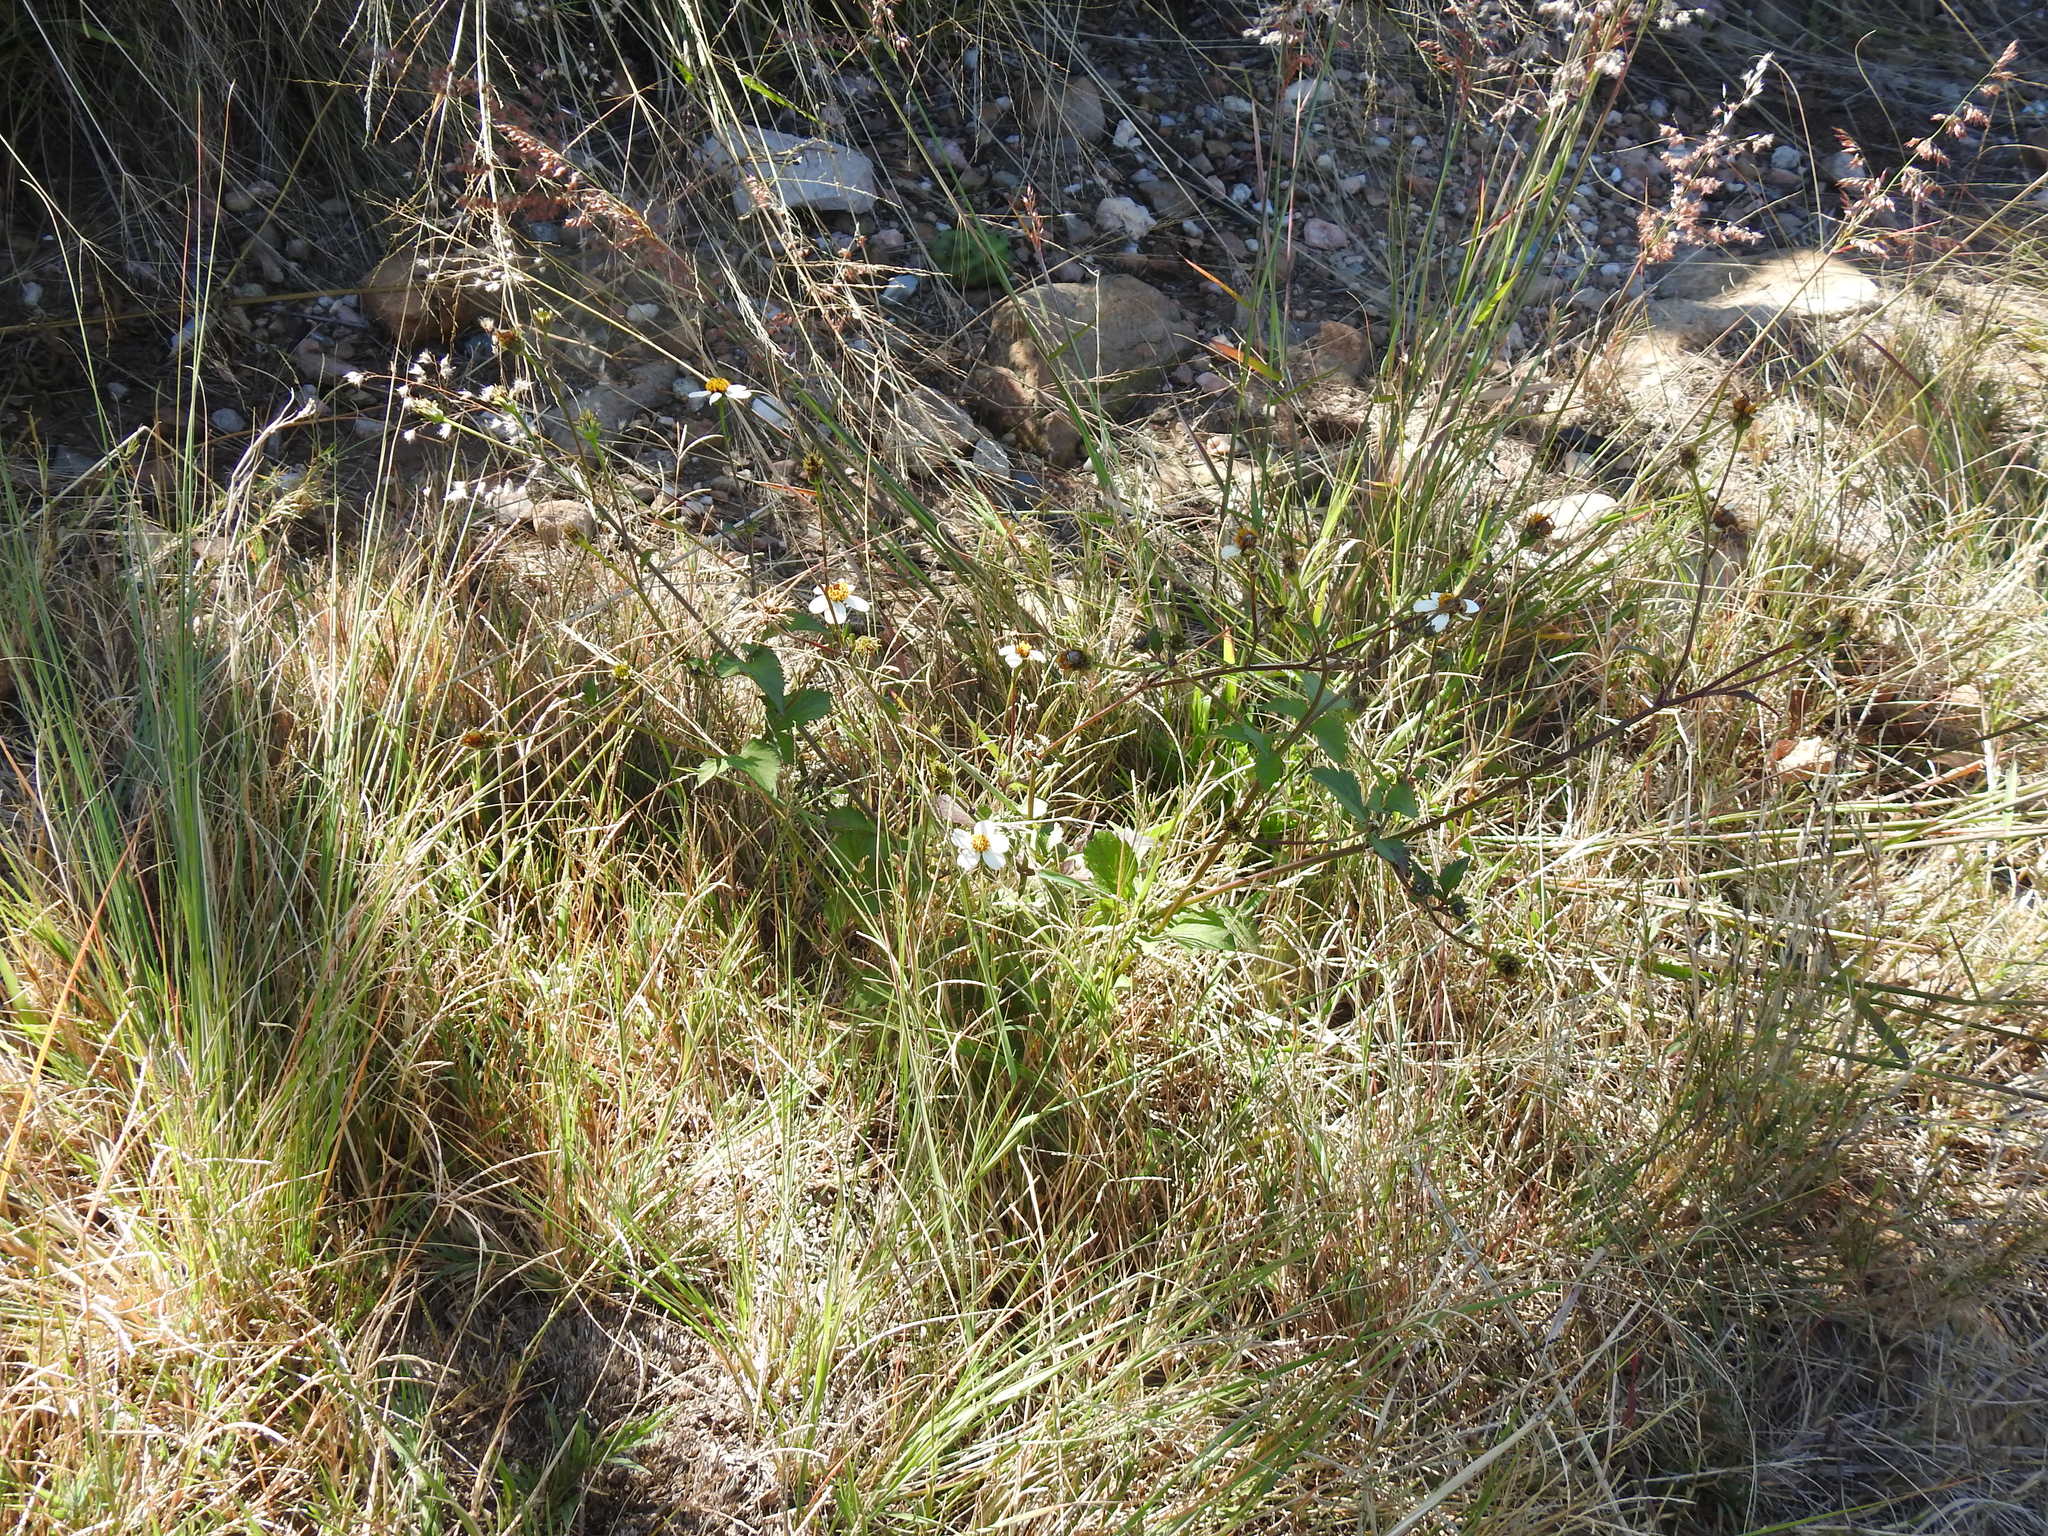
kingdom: Plantae
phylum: Tracheophyta
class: Magnoliopsida
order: Asterales
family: Asteraceae
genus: Bidens
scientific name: Bidens pilosa
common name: Black-jack
